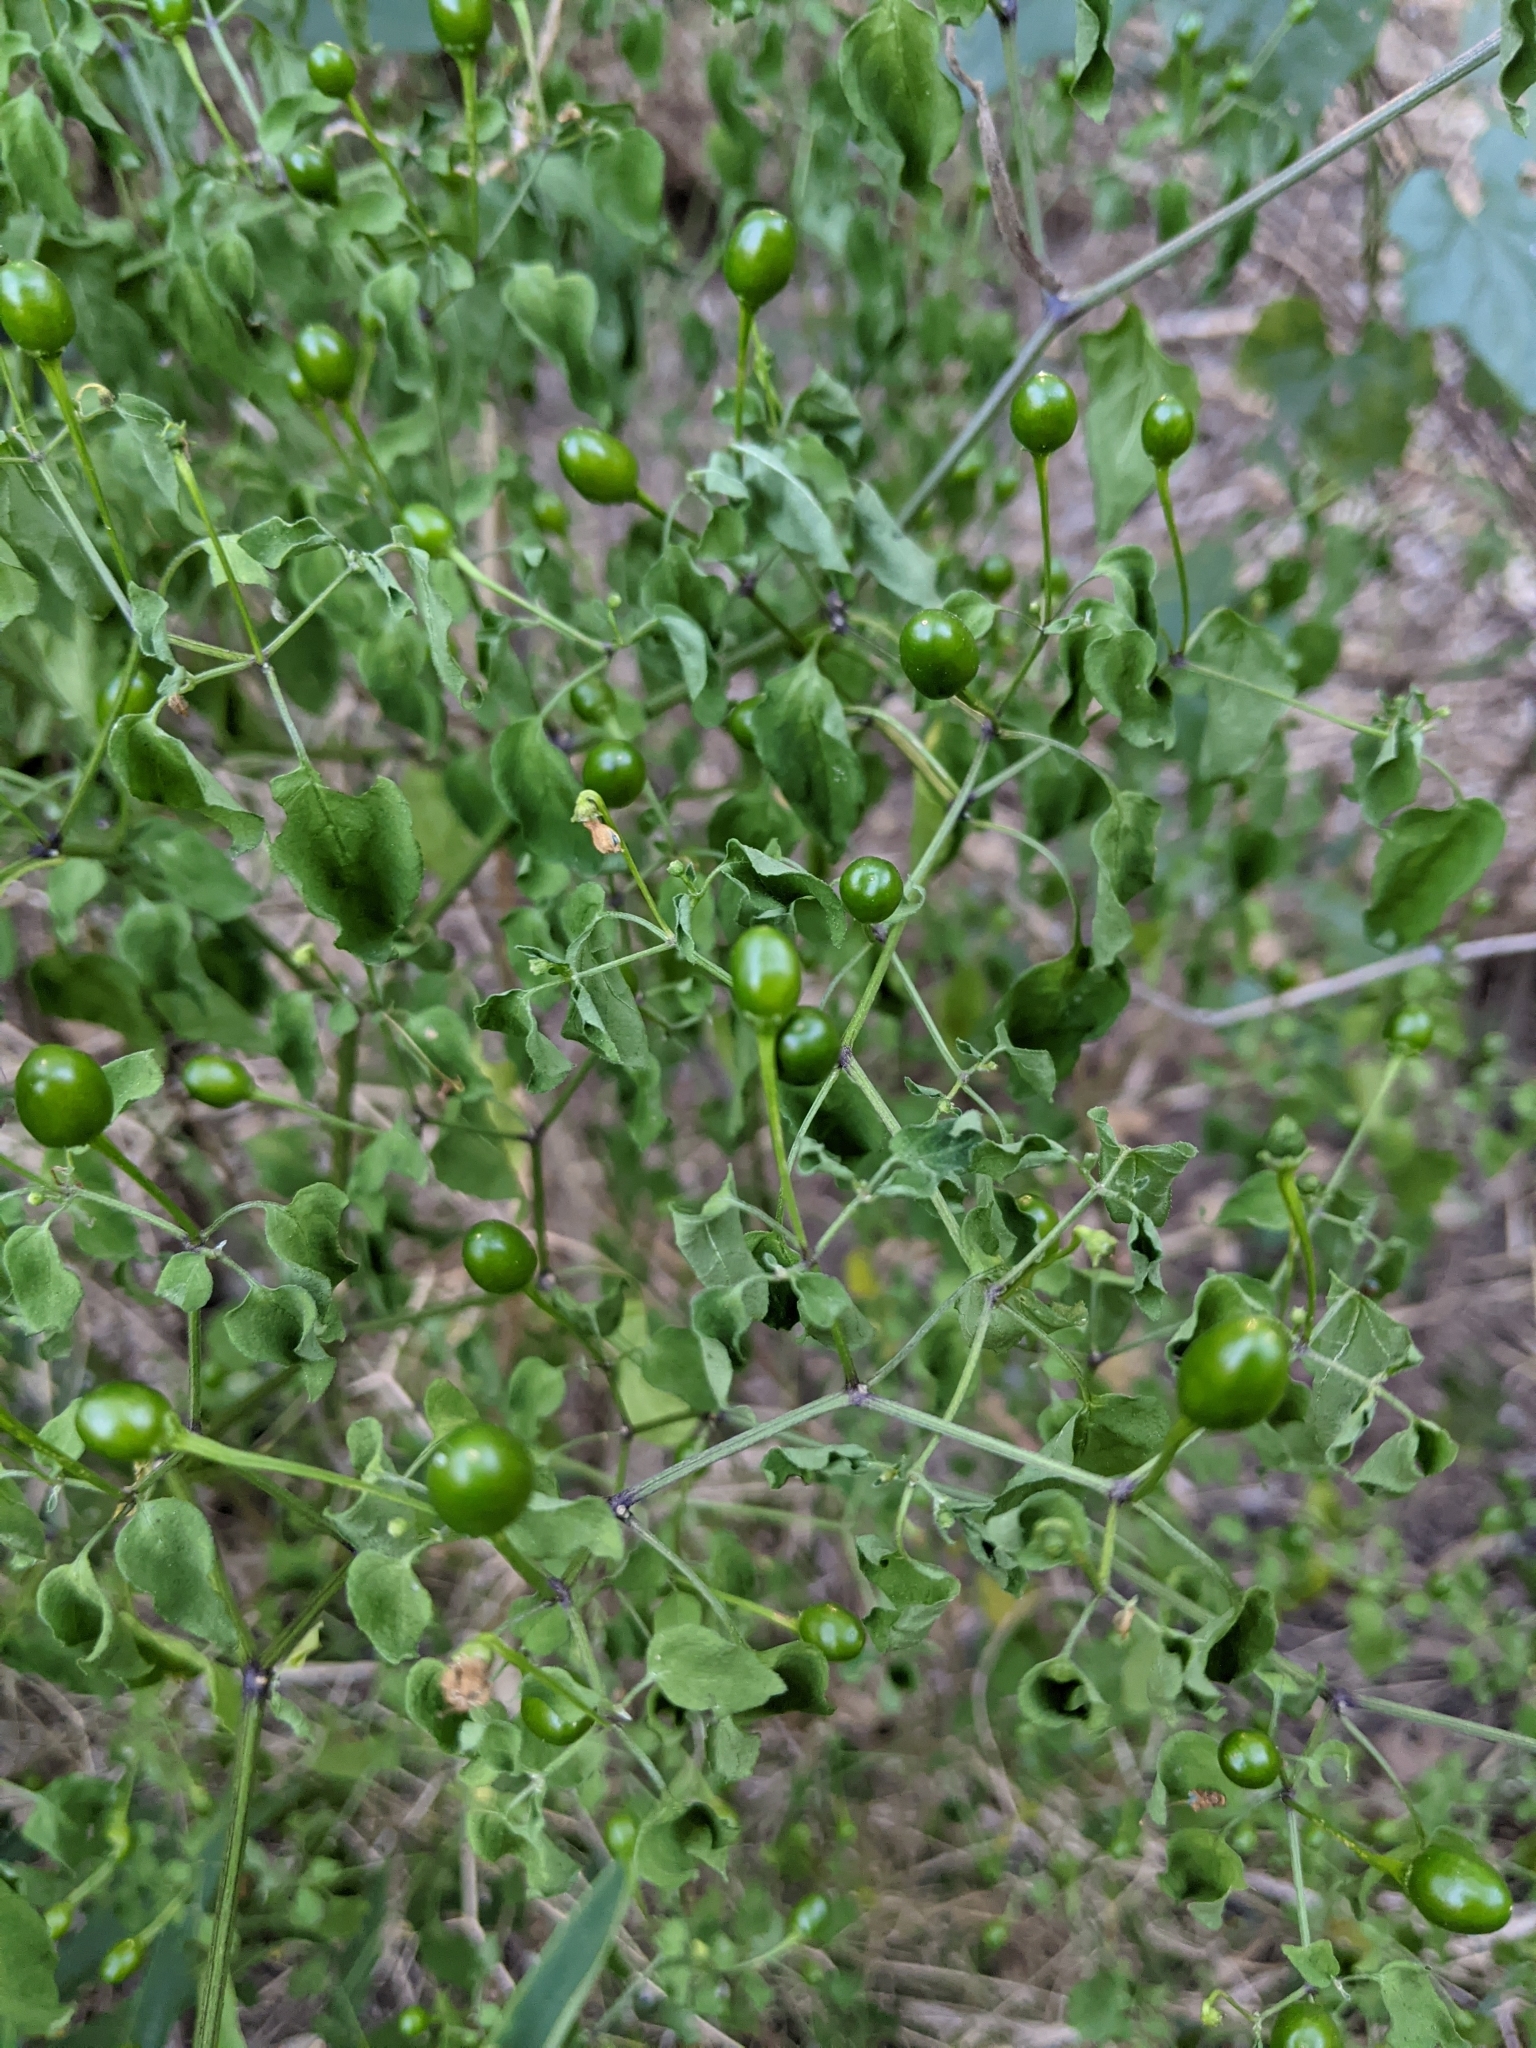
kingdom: Plantae
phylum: Tracheophyta
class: Magnoliopsida
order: Solanales
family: Solanaceae
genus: Capsicum
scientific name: Capsicum annuum
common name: Sweet pepper
